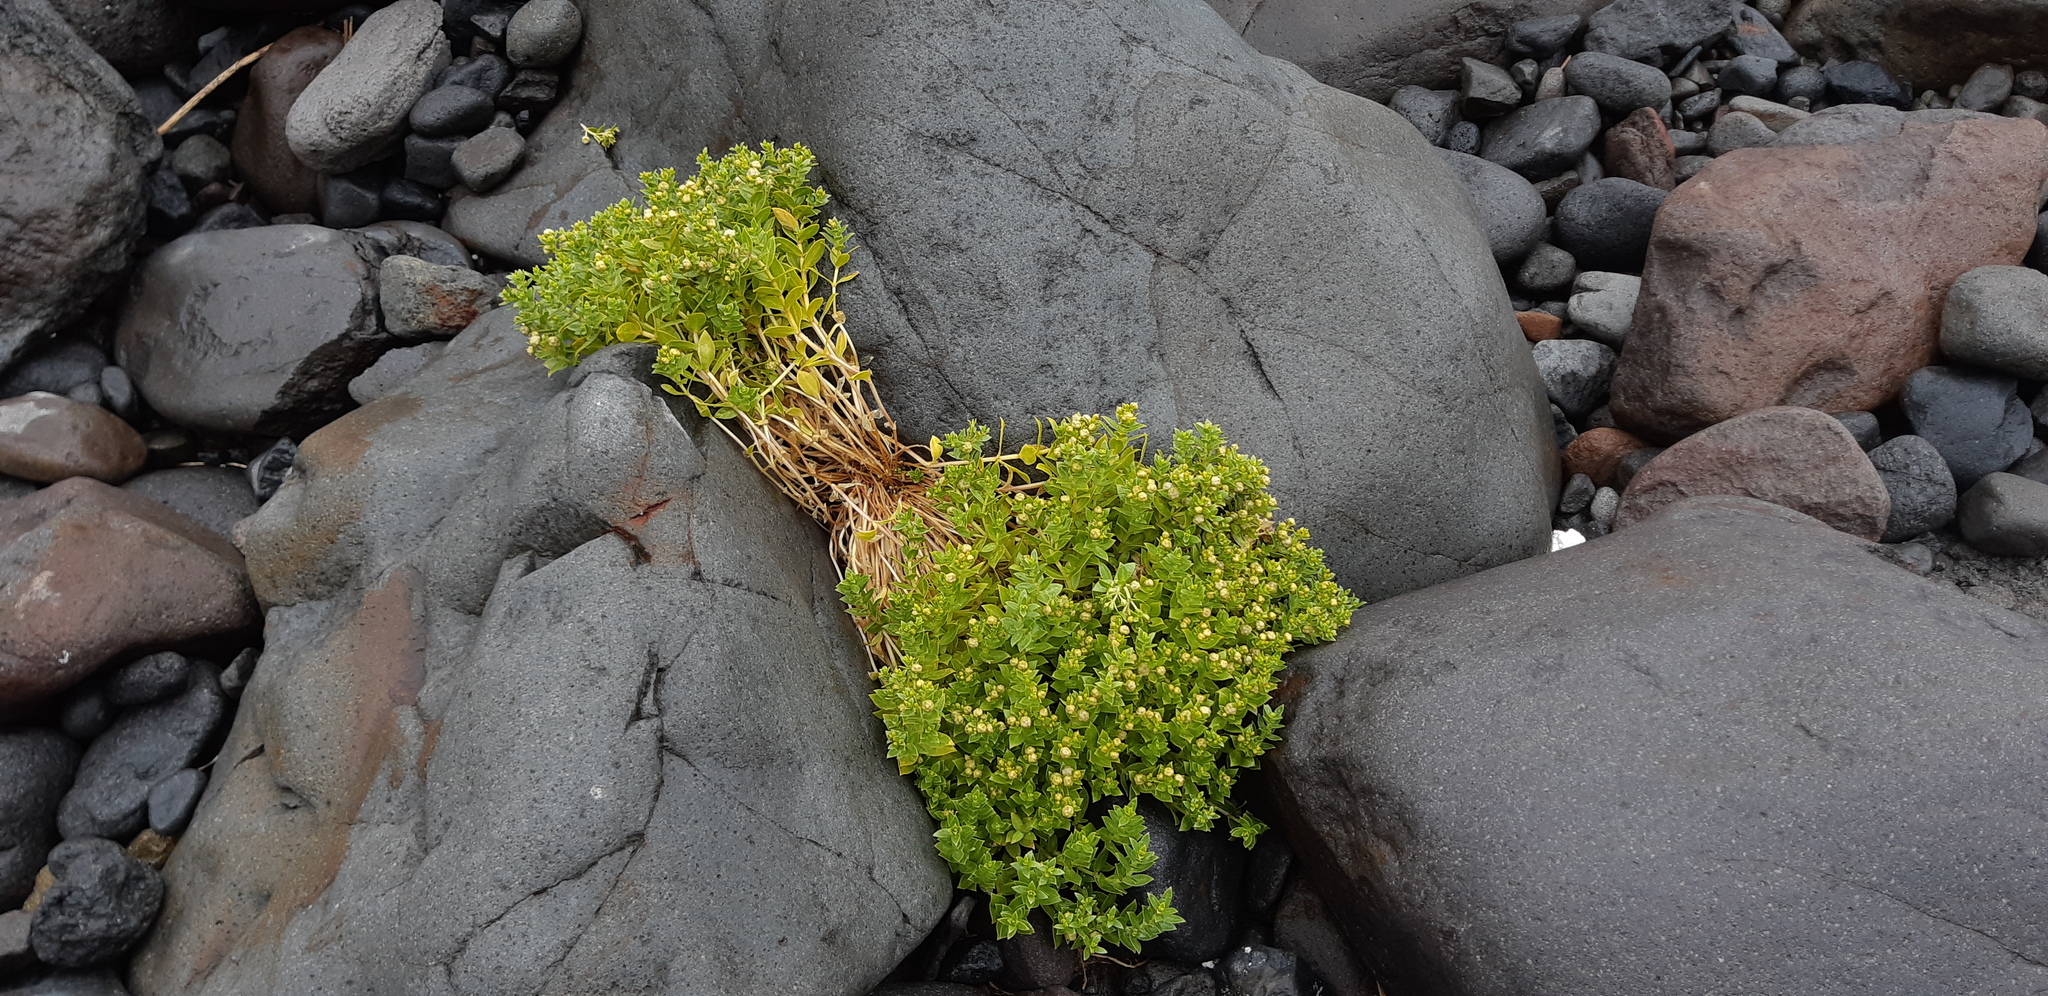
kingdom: Plantae
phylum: Tracheophyta
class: Magnoliopsida
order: Caryophyllales
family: Caryophyllaceae
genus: Honckenya
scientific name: Honckenya peploides
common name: Sea sandwort
